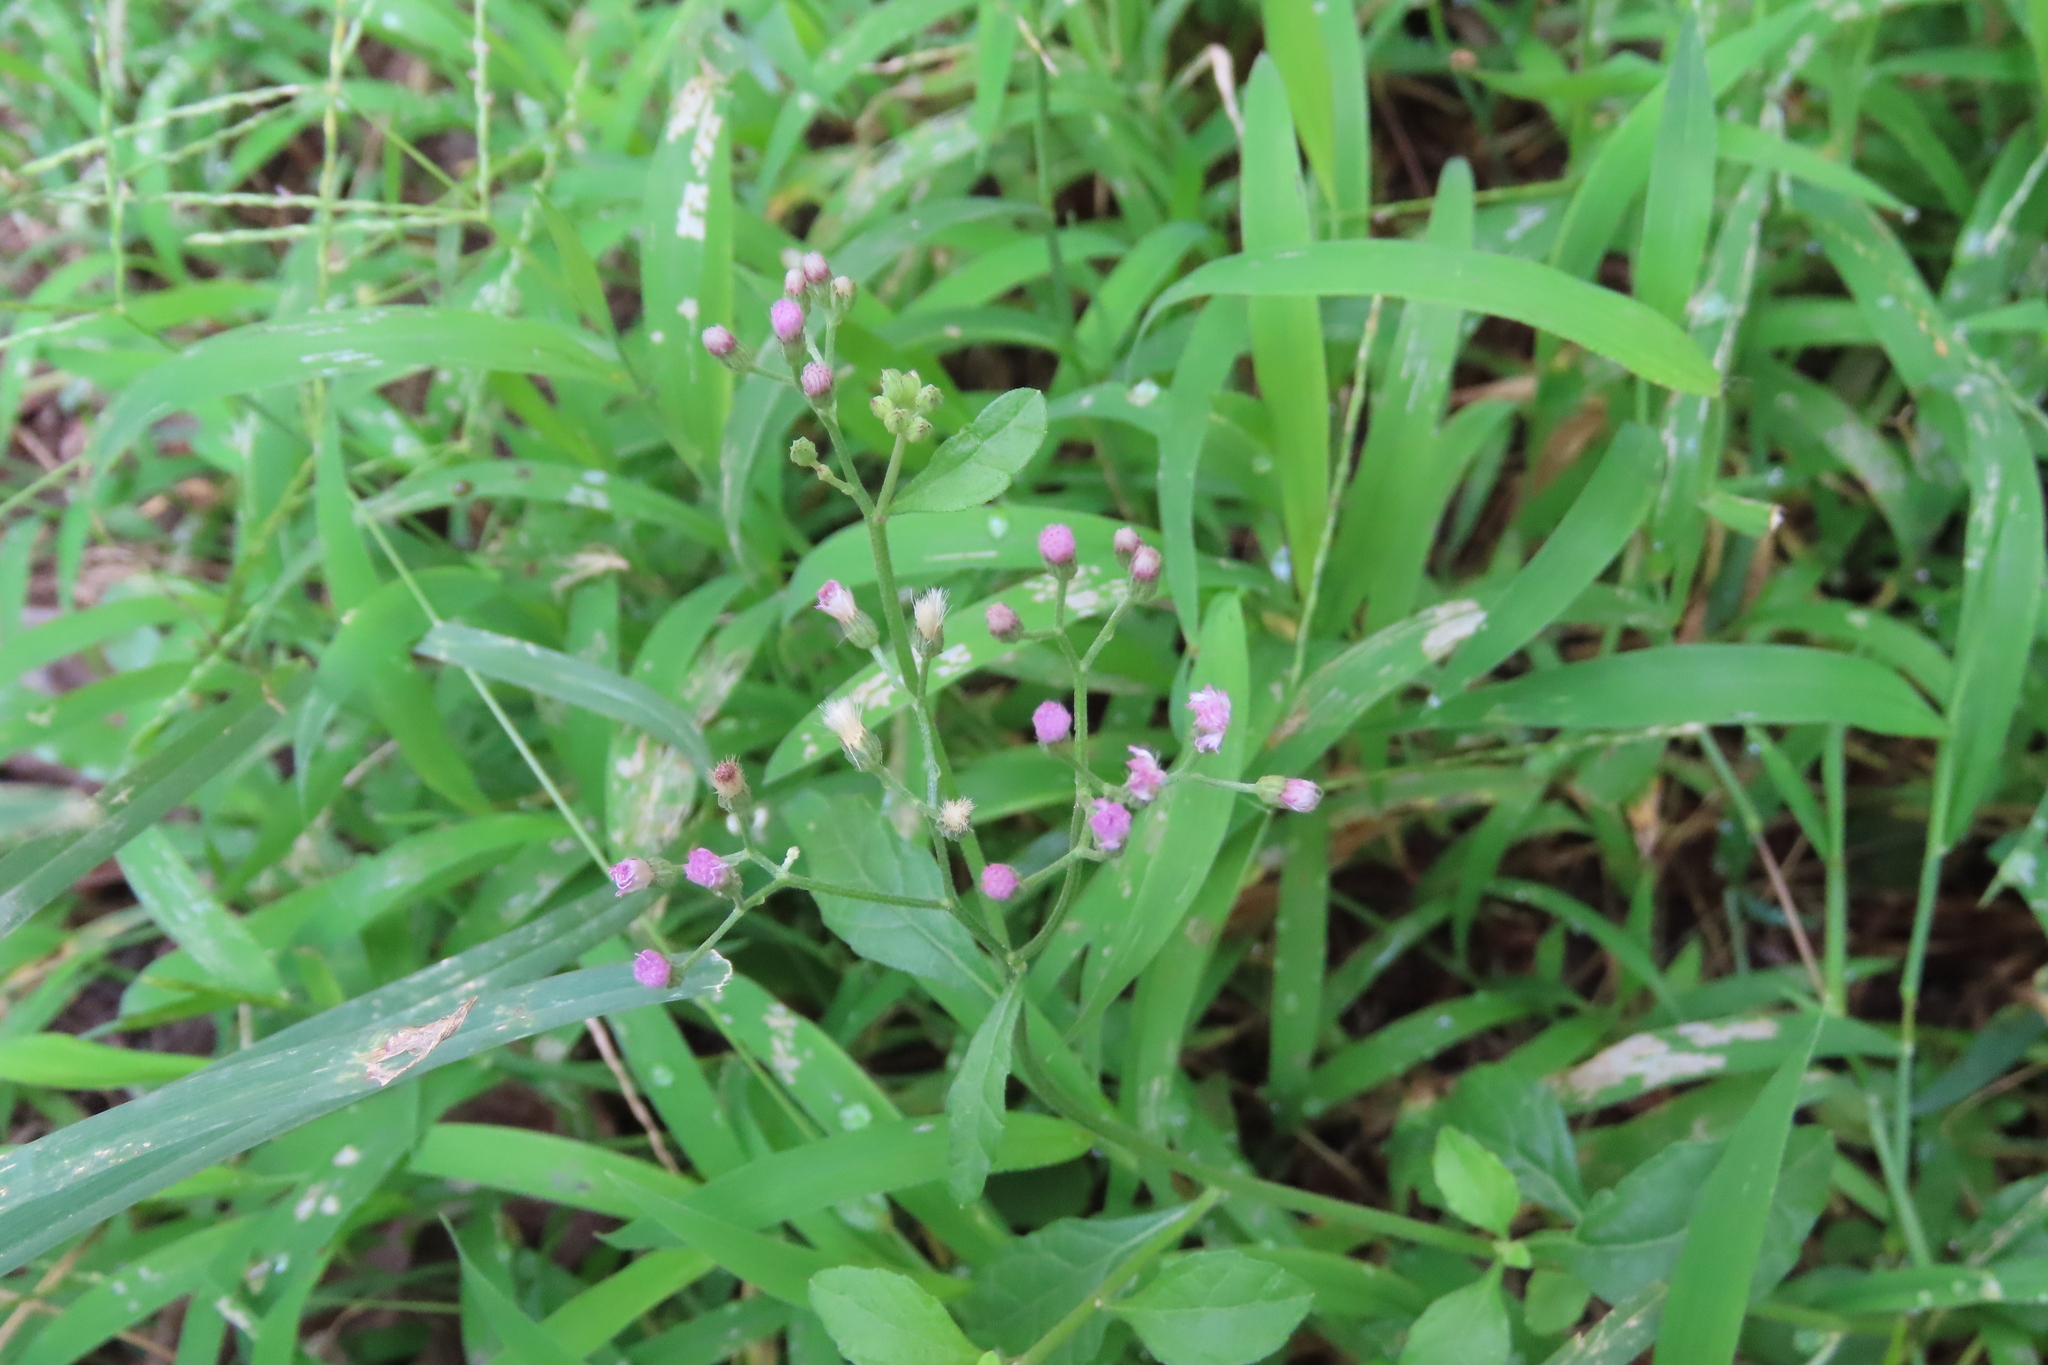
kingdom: Plantae
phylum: Tracheophyta
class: Magnoliopsida
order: Asterales
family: Asteraceae
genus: Cyanthillium
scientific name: Cyanthillium cinereum
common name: Little ironweed
